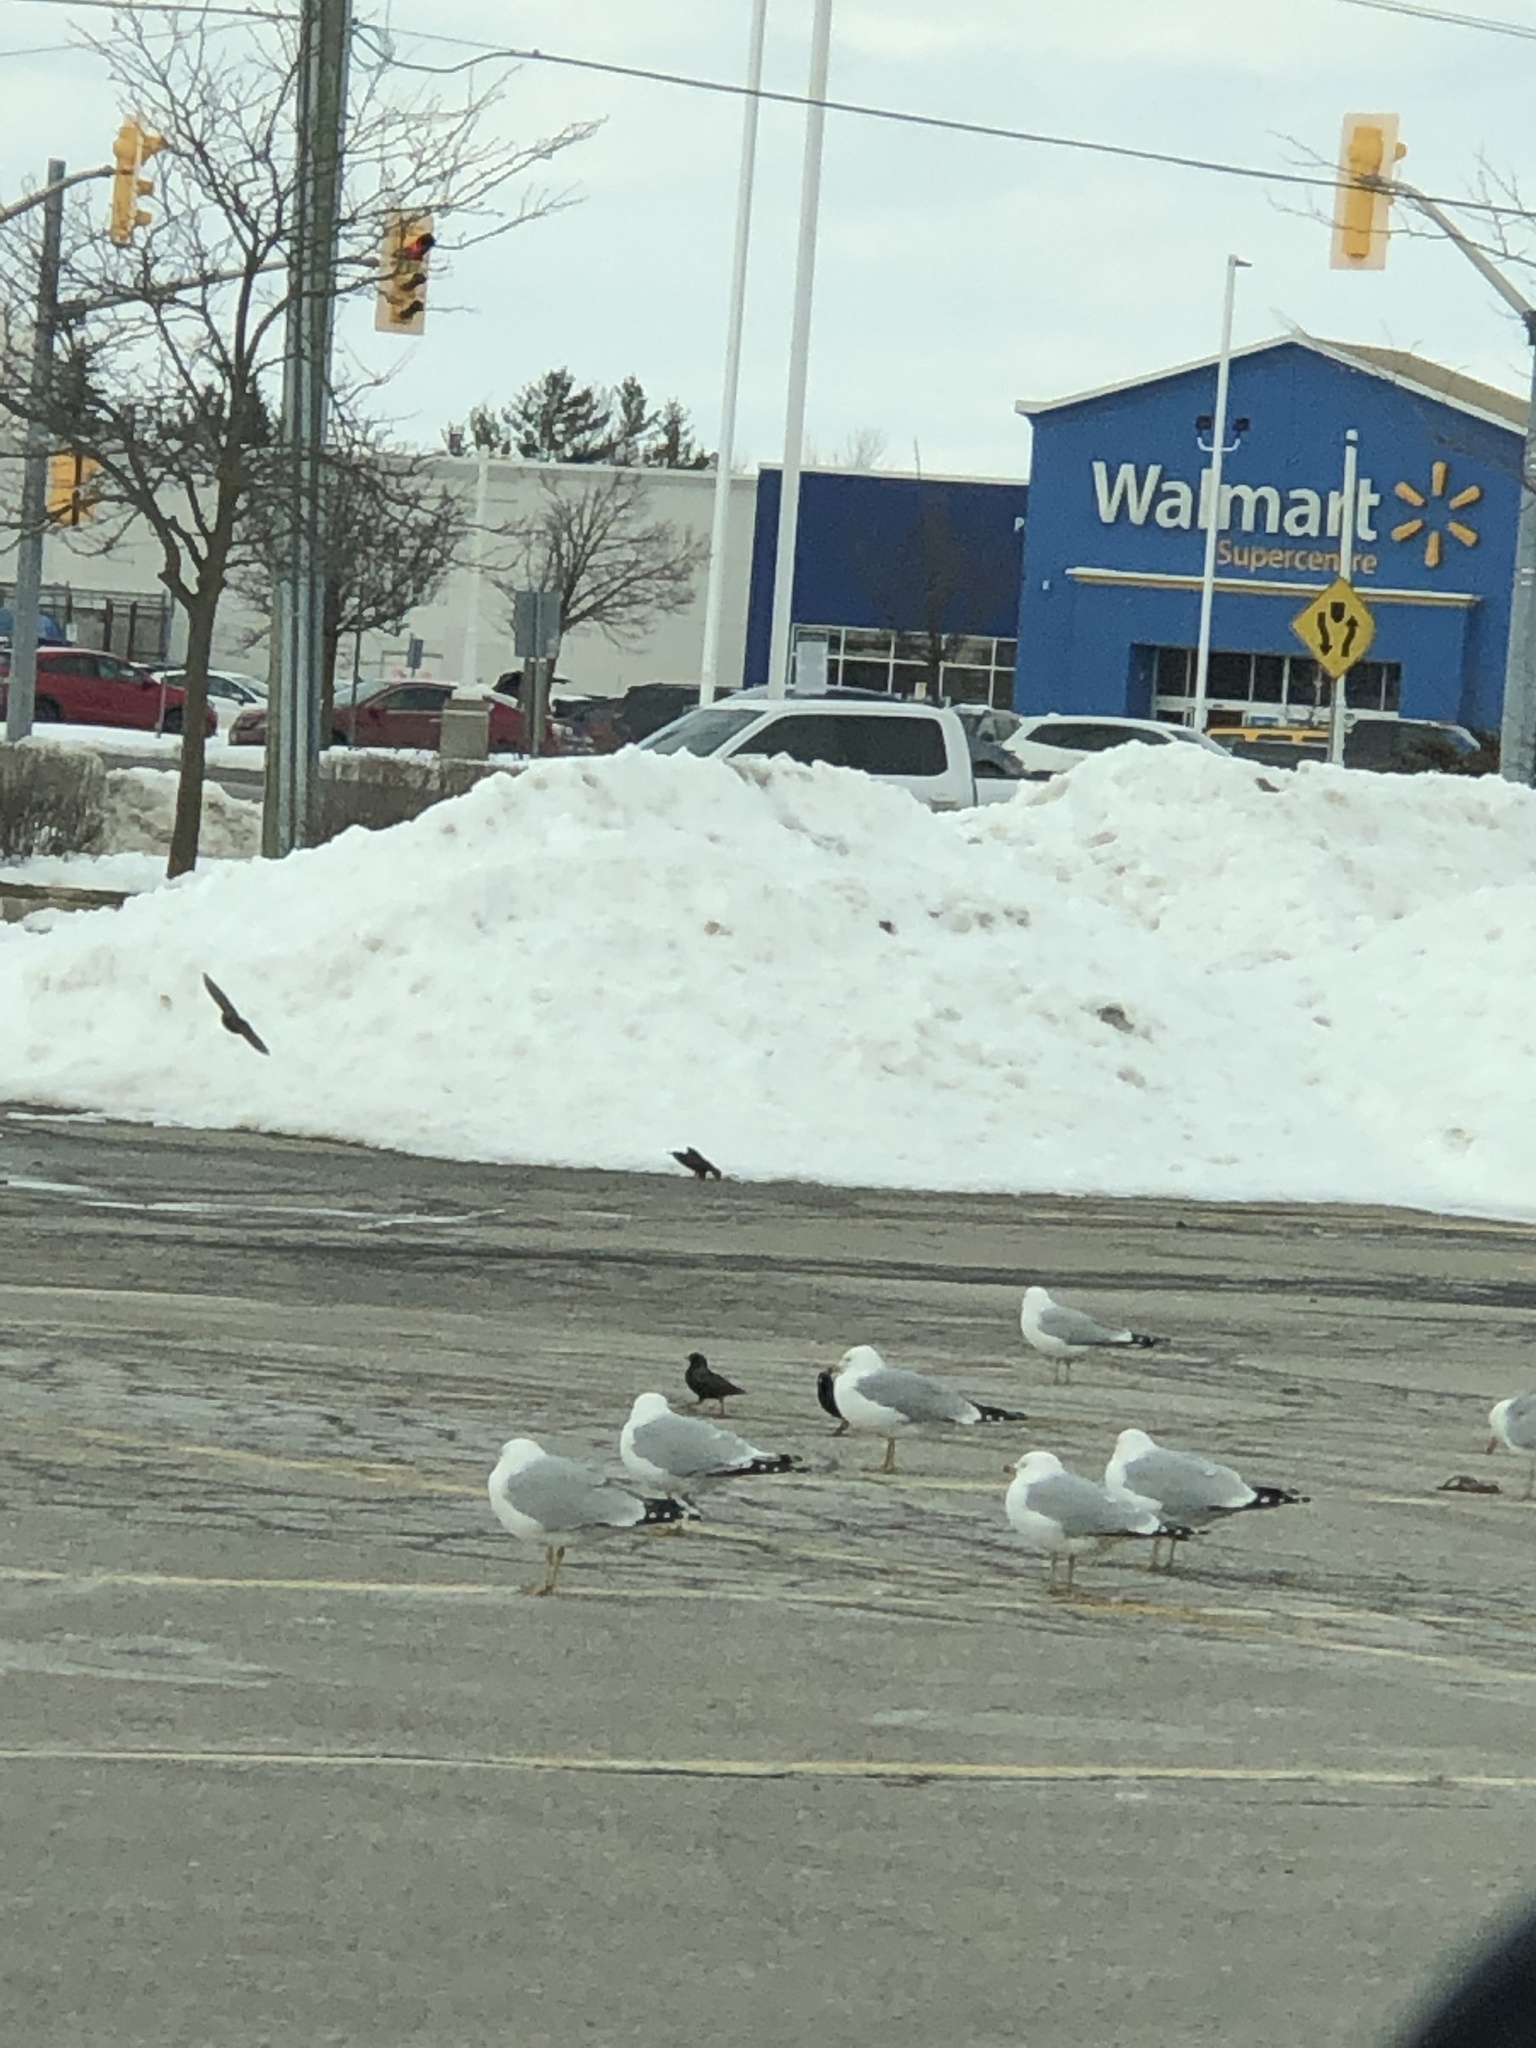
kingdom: Animalia
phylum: Chordata
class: Aves
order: Charadriiformes
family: Laridae
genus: Larus
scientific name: Larus delawarensis
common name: Ring-billed gull
